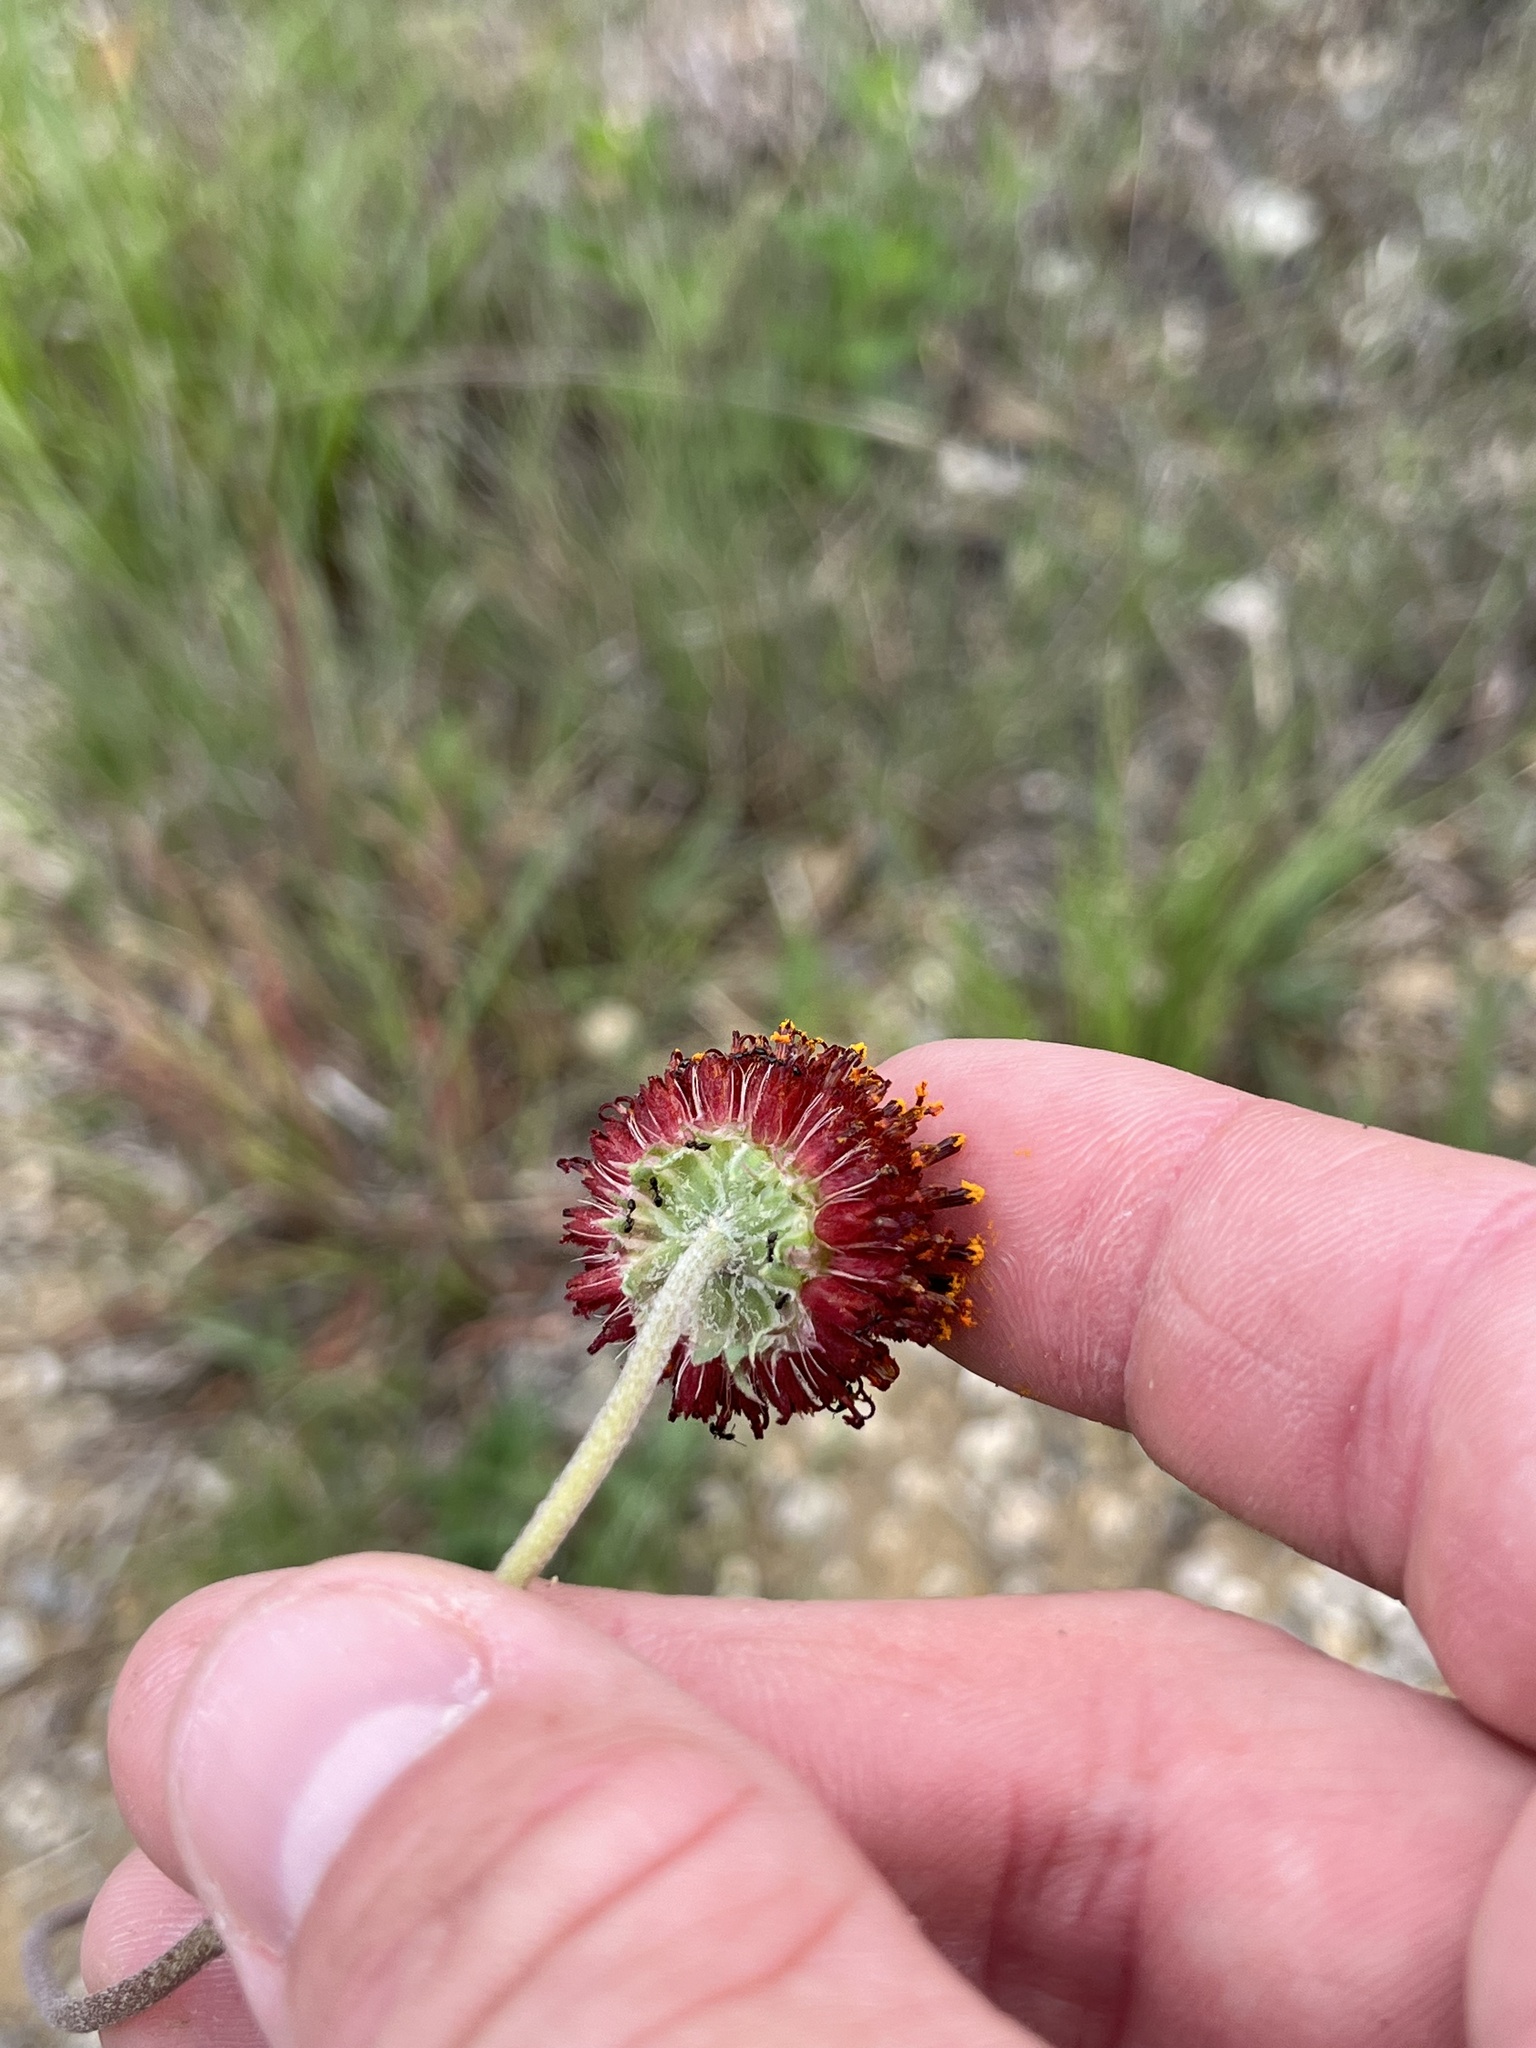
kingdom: Plantae
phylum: Tracheophyta
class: Magnoliopsida
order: Asterales
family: Asteraceae
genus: Gaillardia
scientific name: Gaillardia suavis
